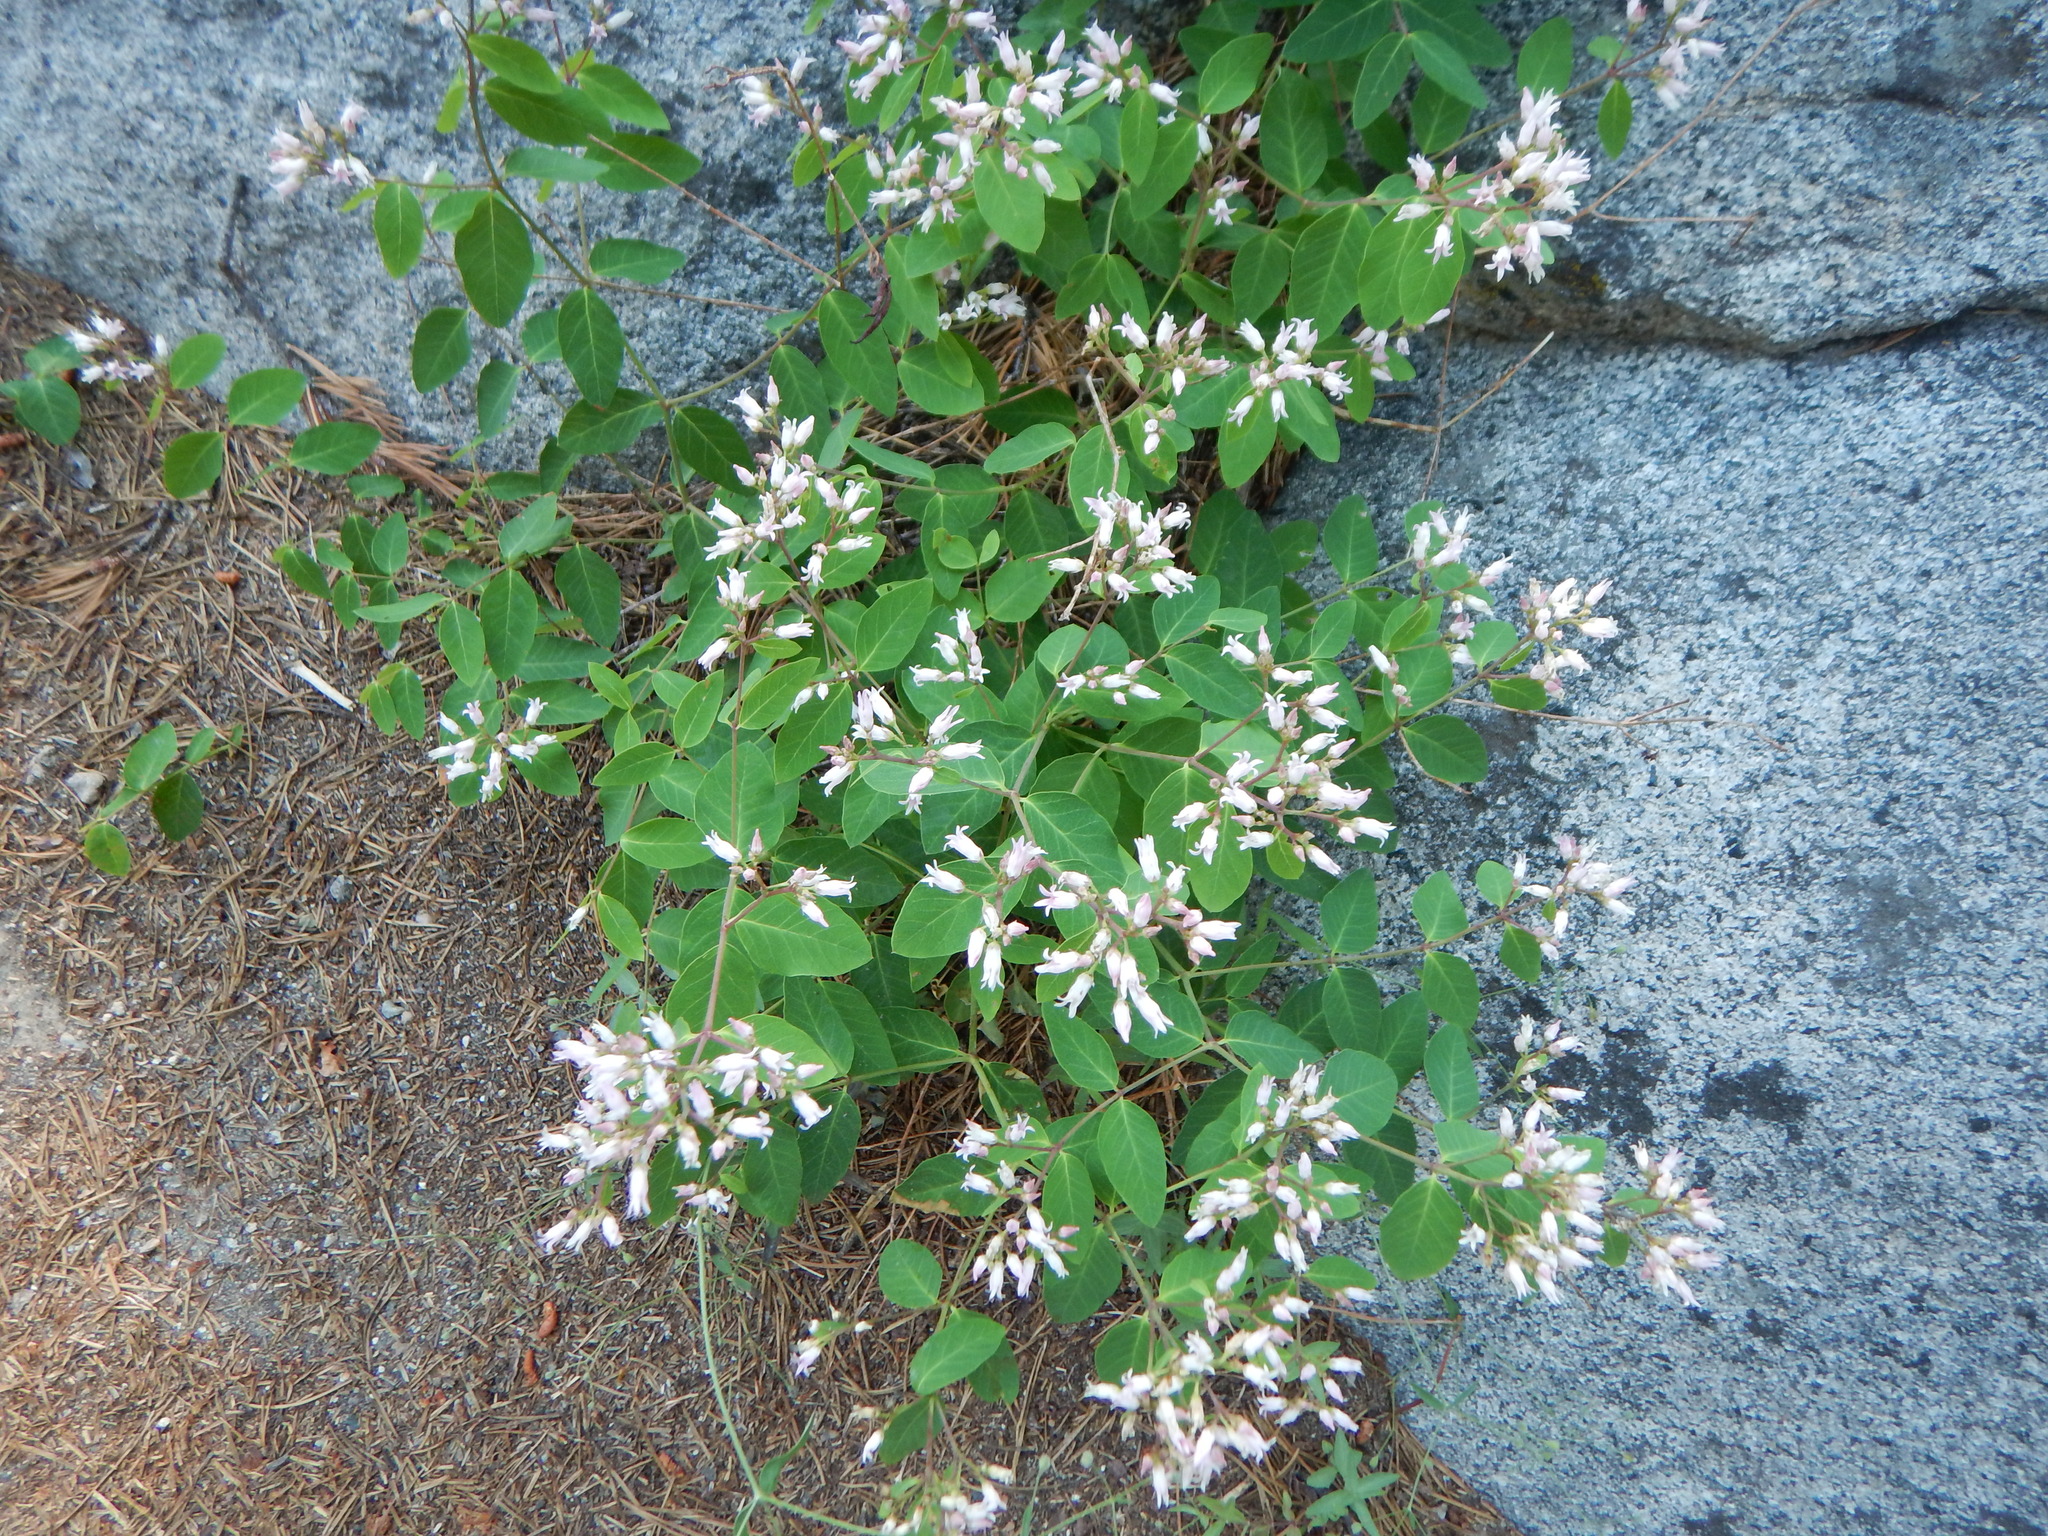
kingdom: Plantae
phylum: Tracheophyta
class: Magnoliopsida
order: Gentianales
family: Apocynaceae
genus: Apocynum
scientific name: Apocynum androsaemifolium
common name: Spreading dogbane
